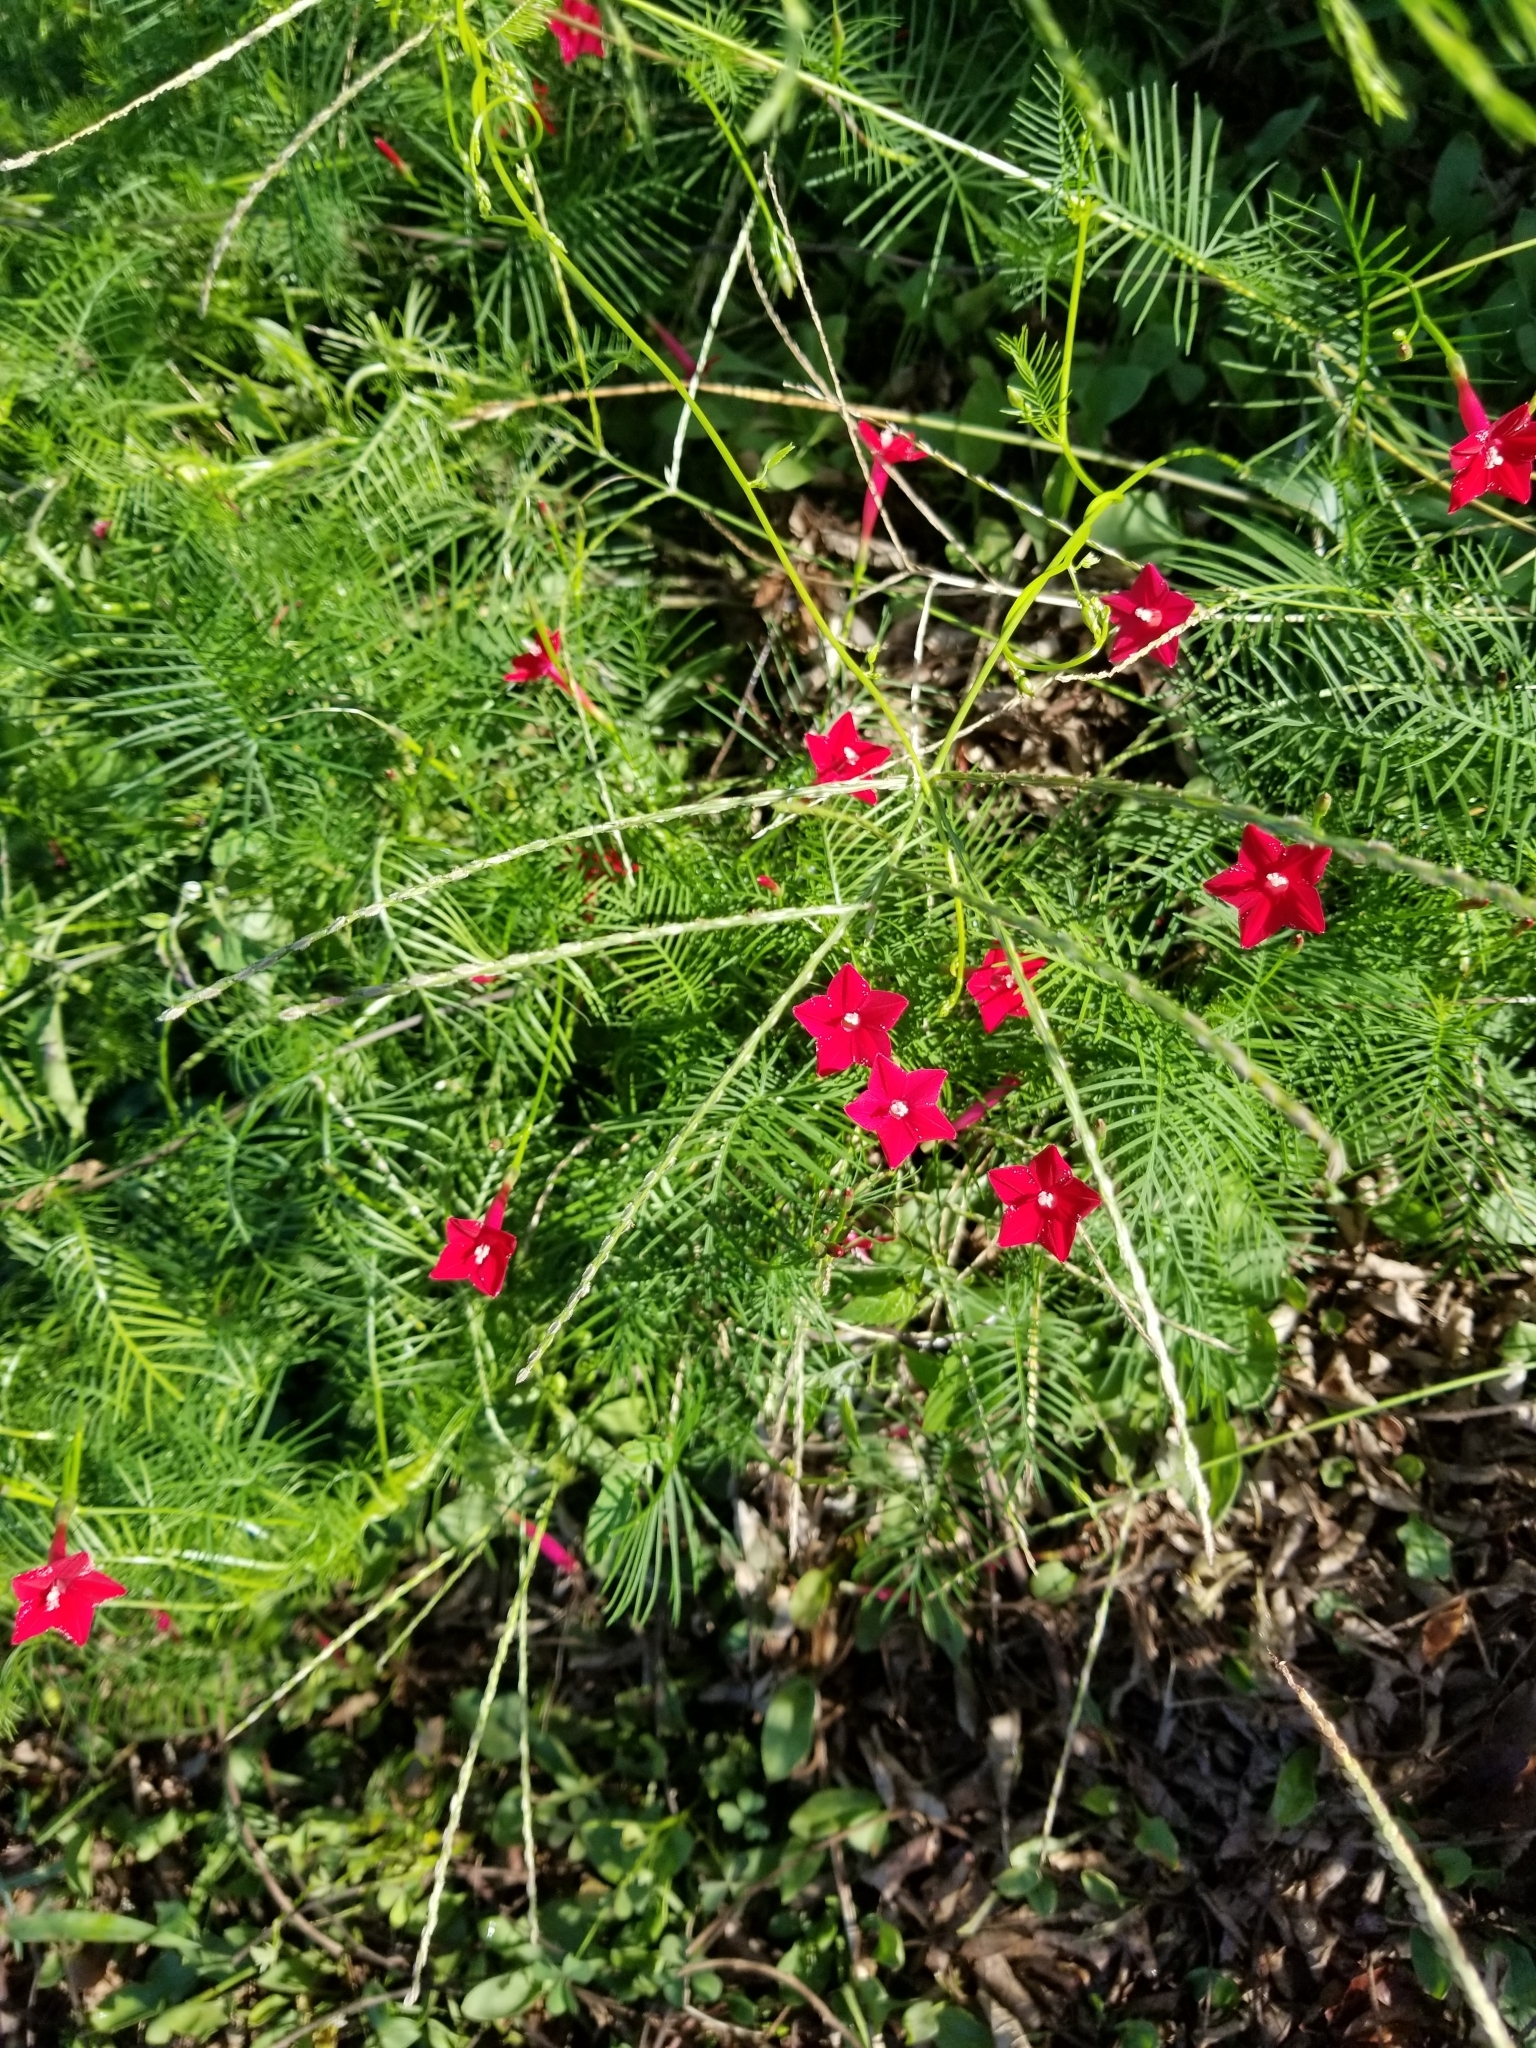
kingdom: Plantae
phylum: Tracheophyta
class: Magnoliopsida
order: Solanales
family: Convolvulaceae
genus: Ipomoea
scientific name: Ipomoea quamoclit
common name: Cypress vine
